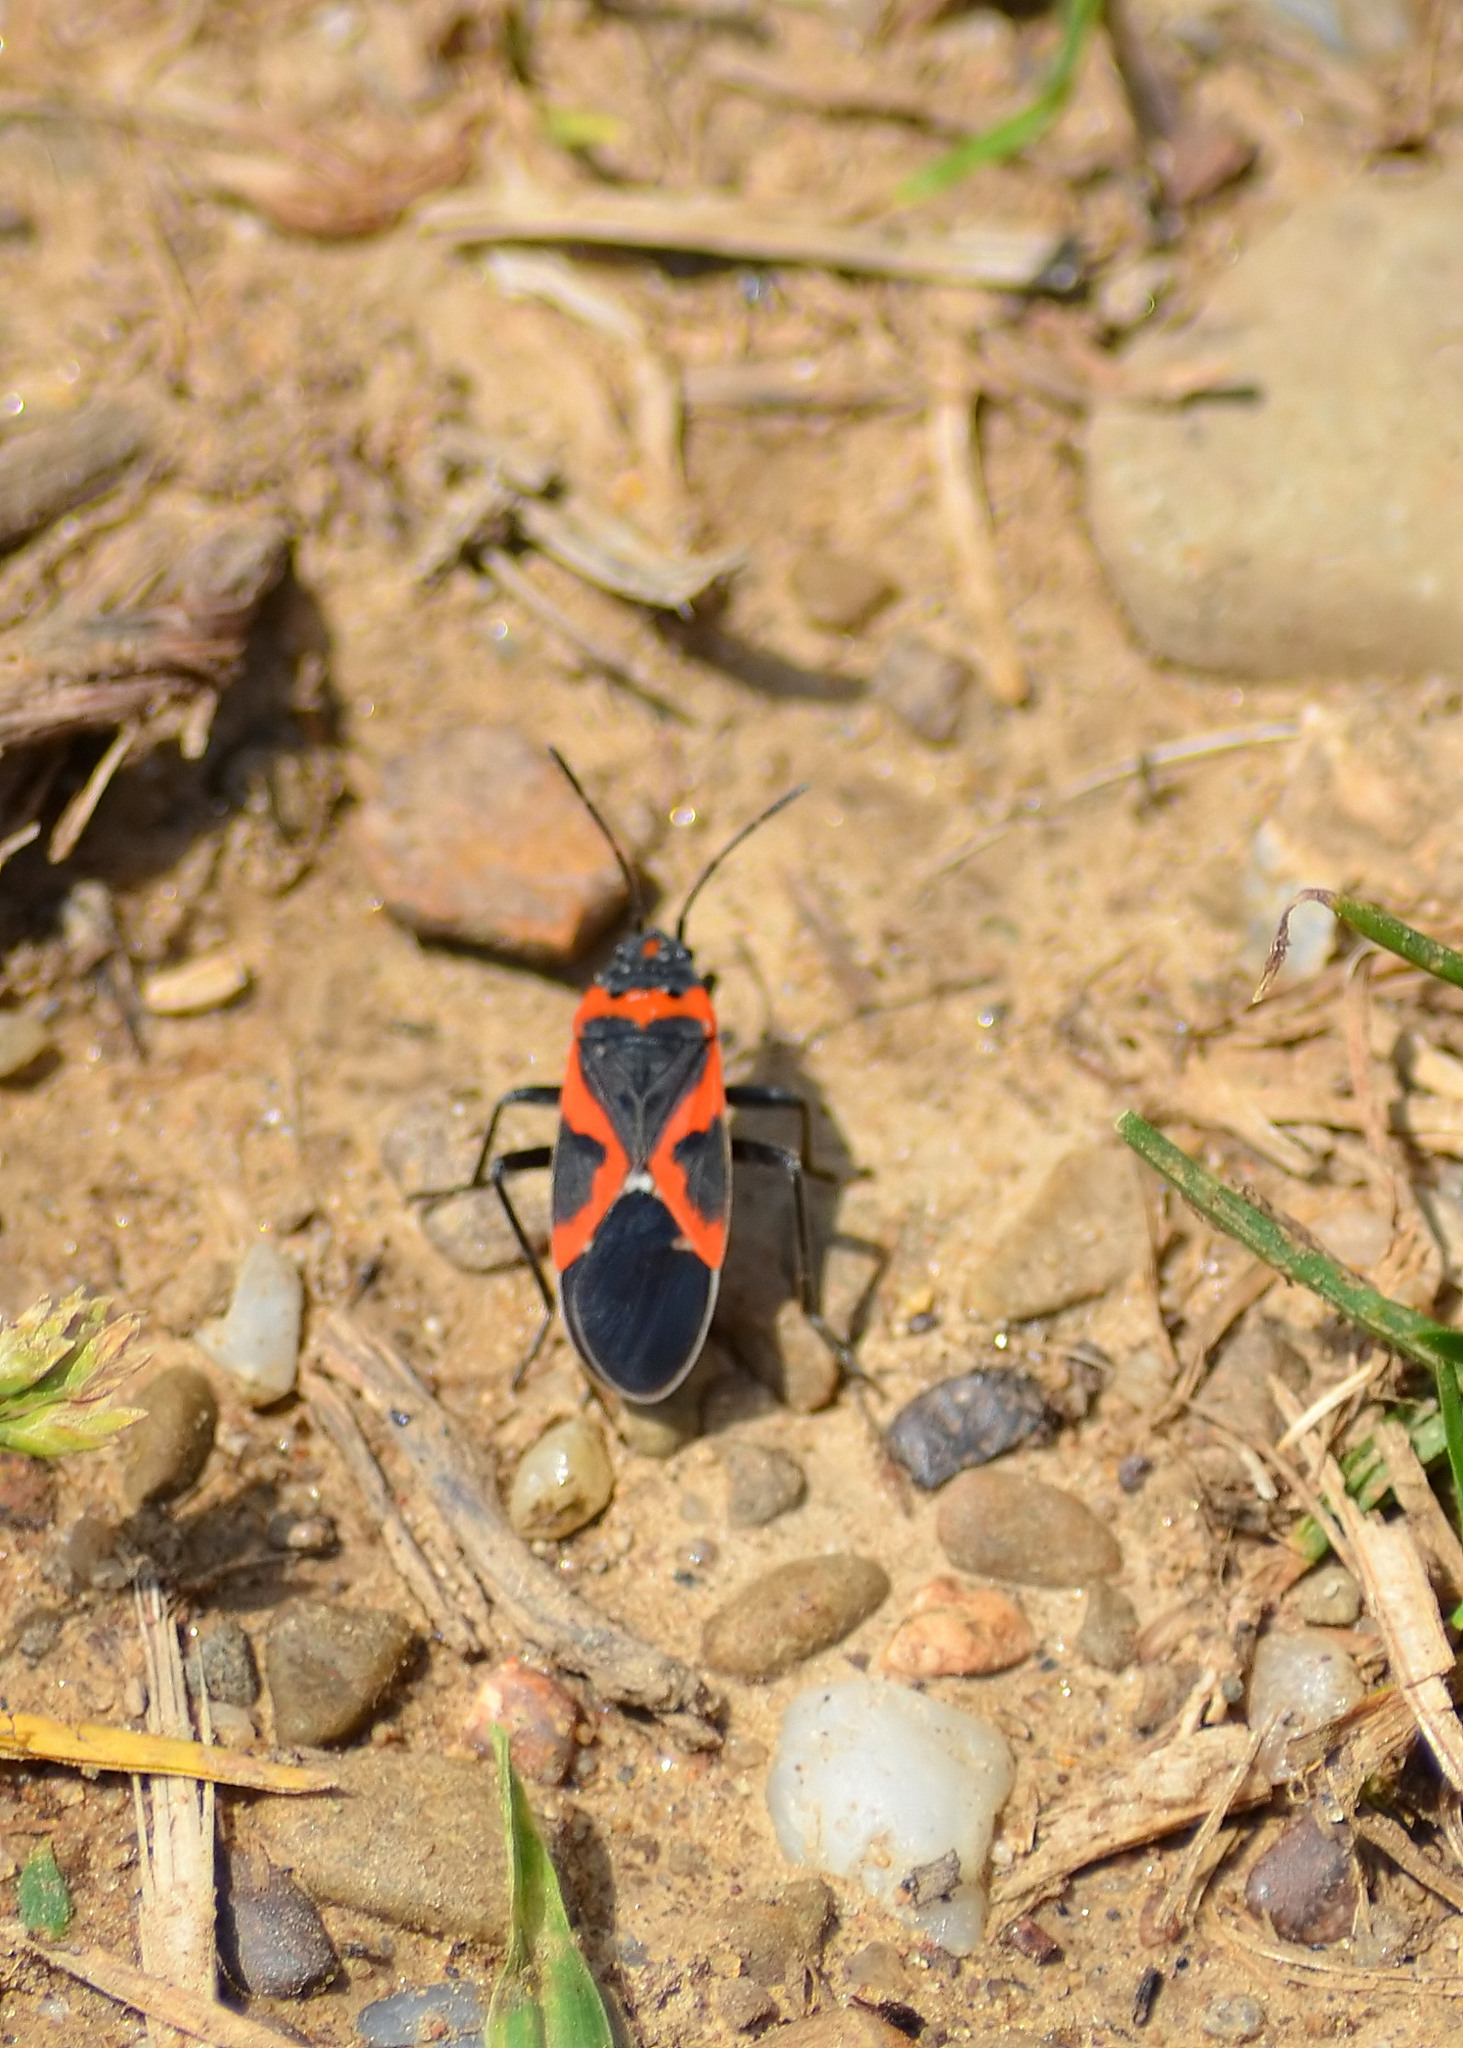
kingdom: Animalia
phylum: Arthropoda
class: Insecta
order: Hemiptera
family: Lygaeidae
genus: Lygaeus
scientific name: Lygaeus kalmii
